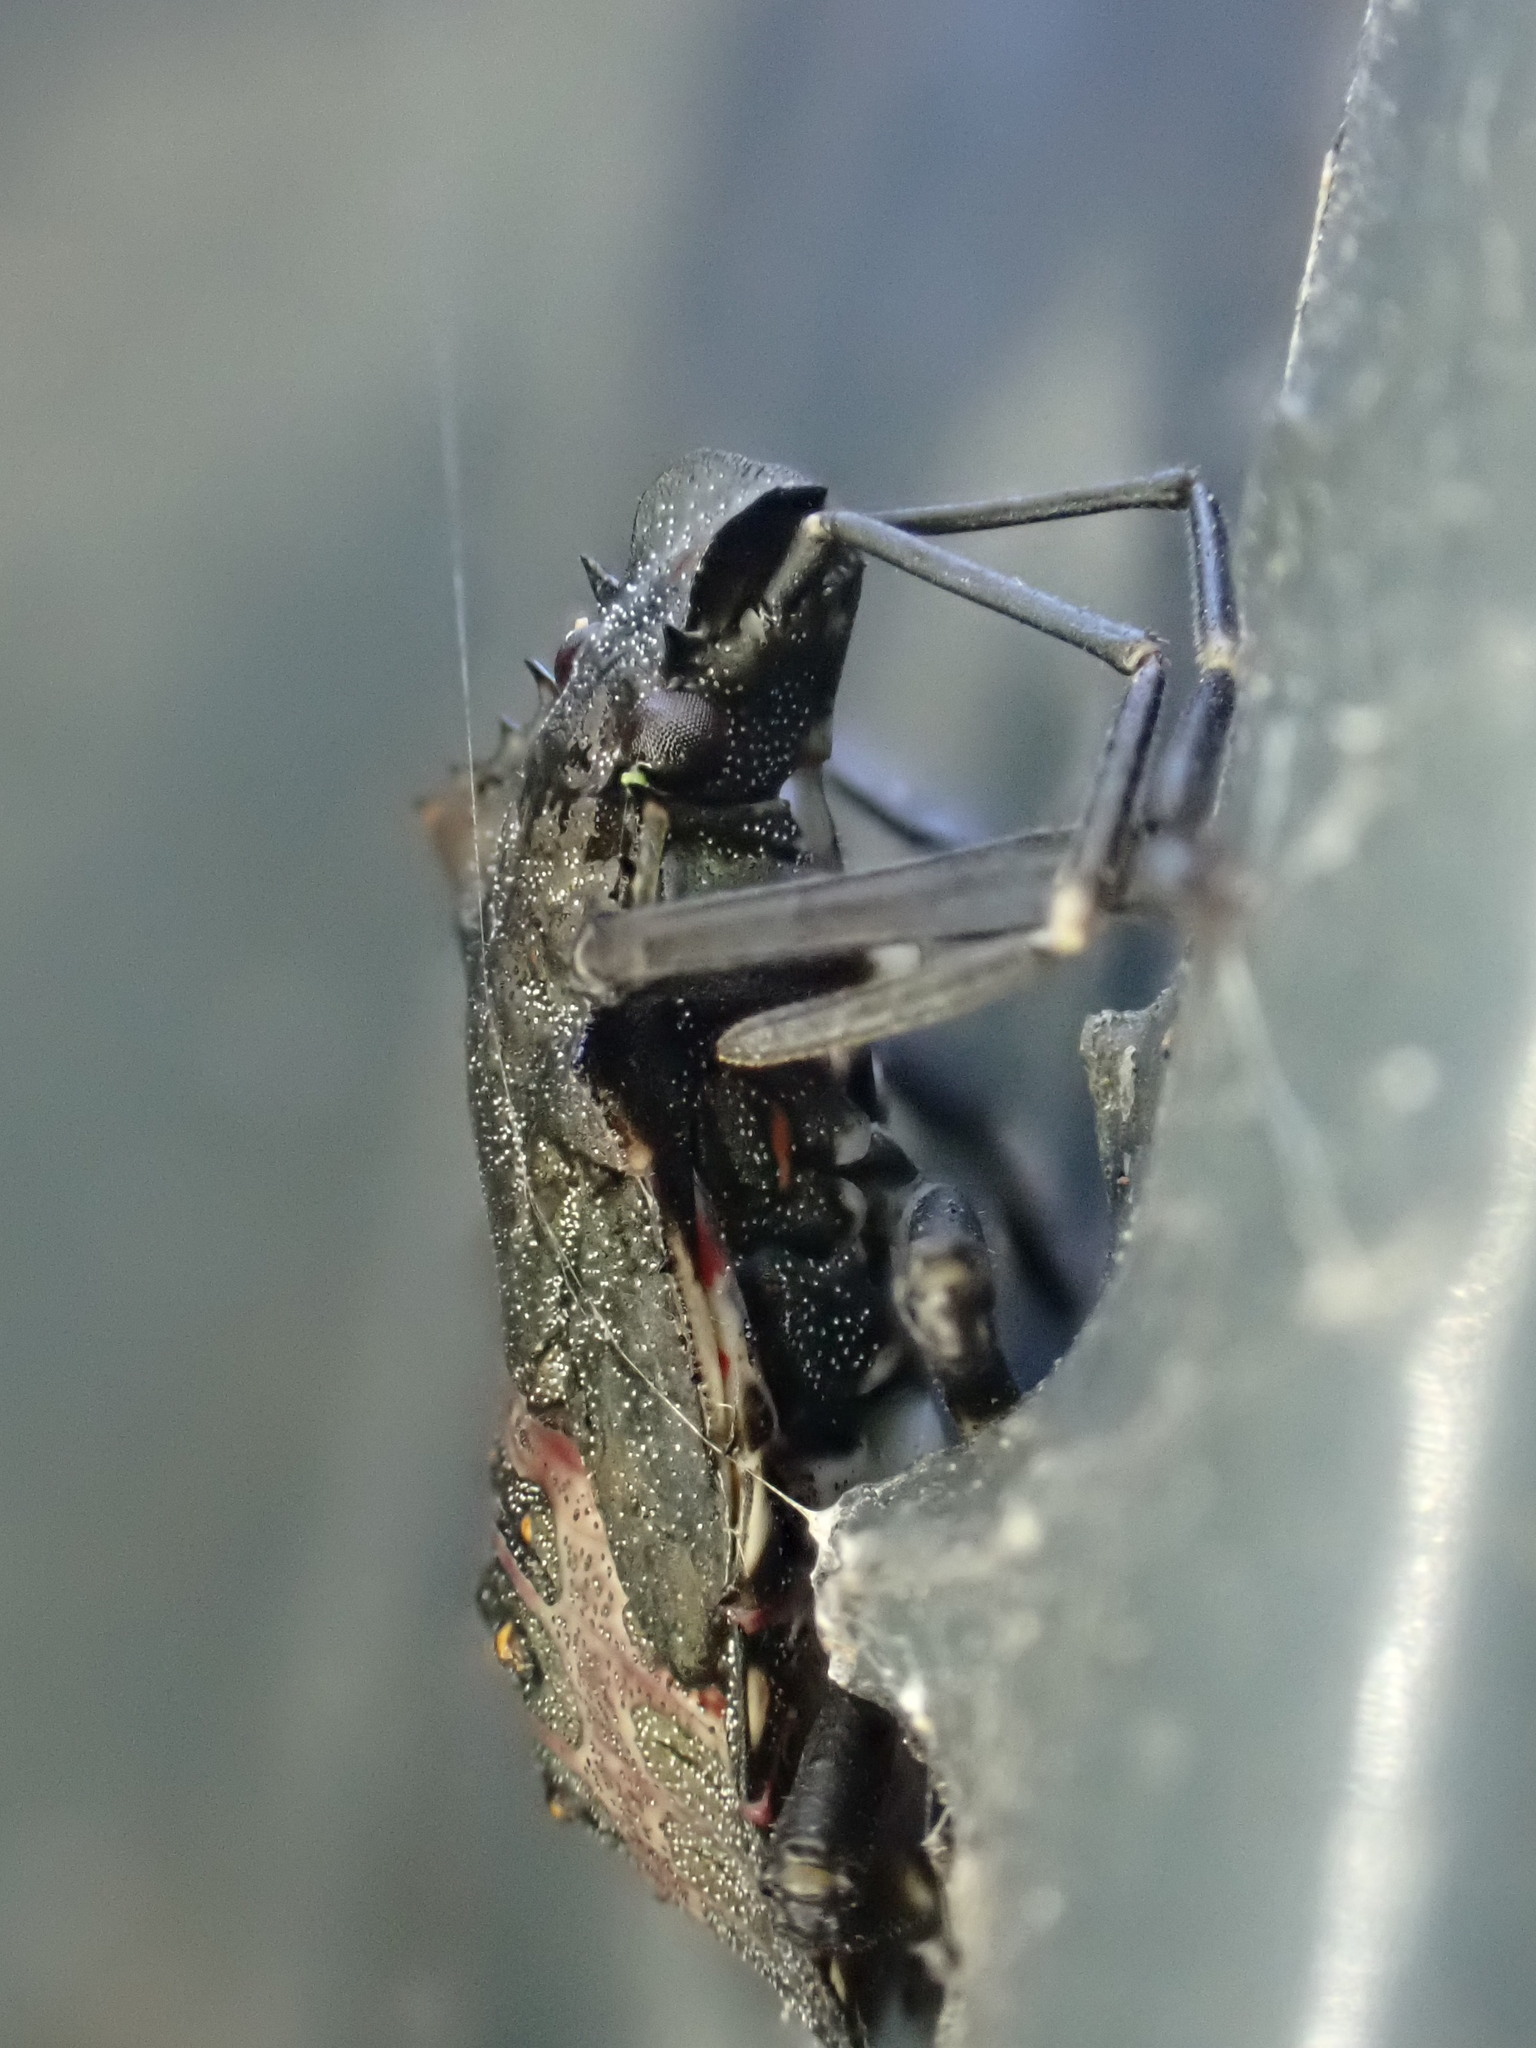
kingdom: Animalia
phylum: Arthropoda
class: Insecta
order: Hemiptera
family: Pentatomidae
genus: Halyomorpha
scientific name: Halyomorpha halys
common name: Brown marmorated stink bug
